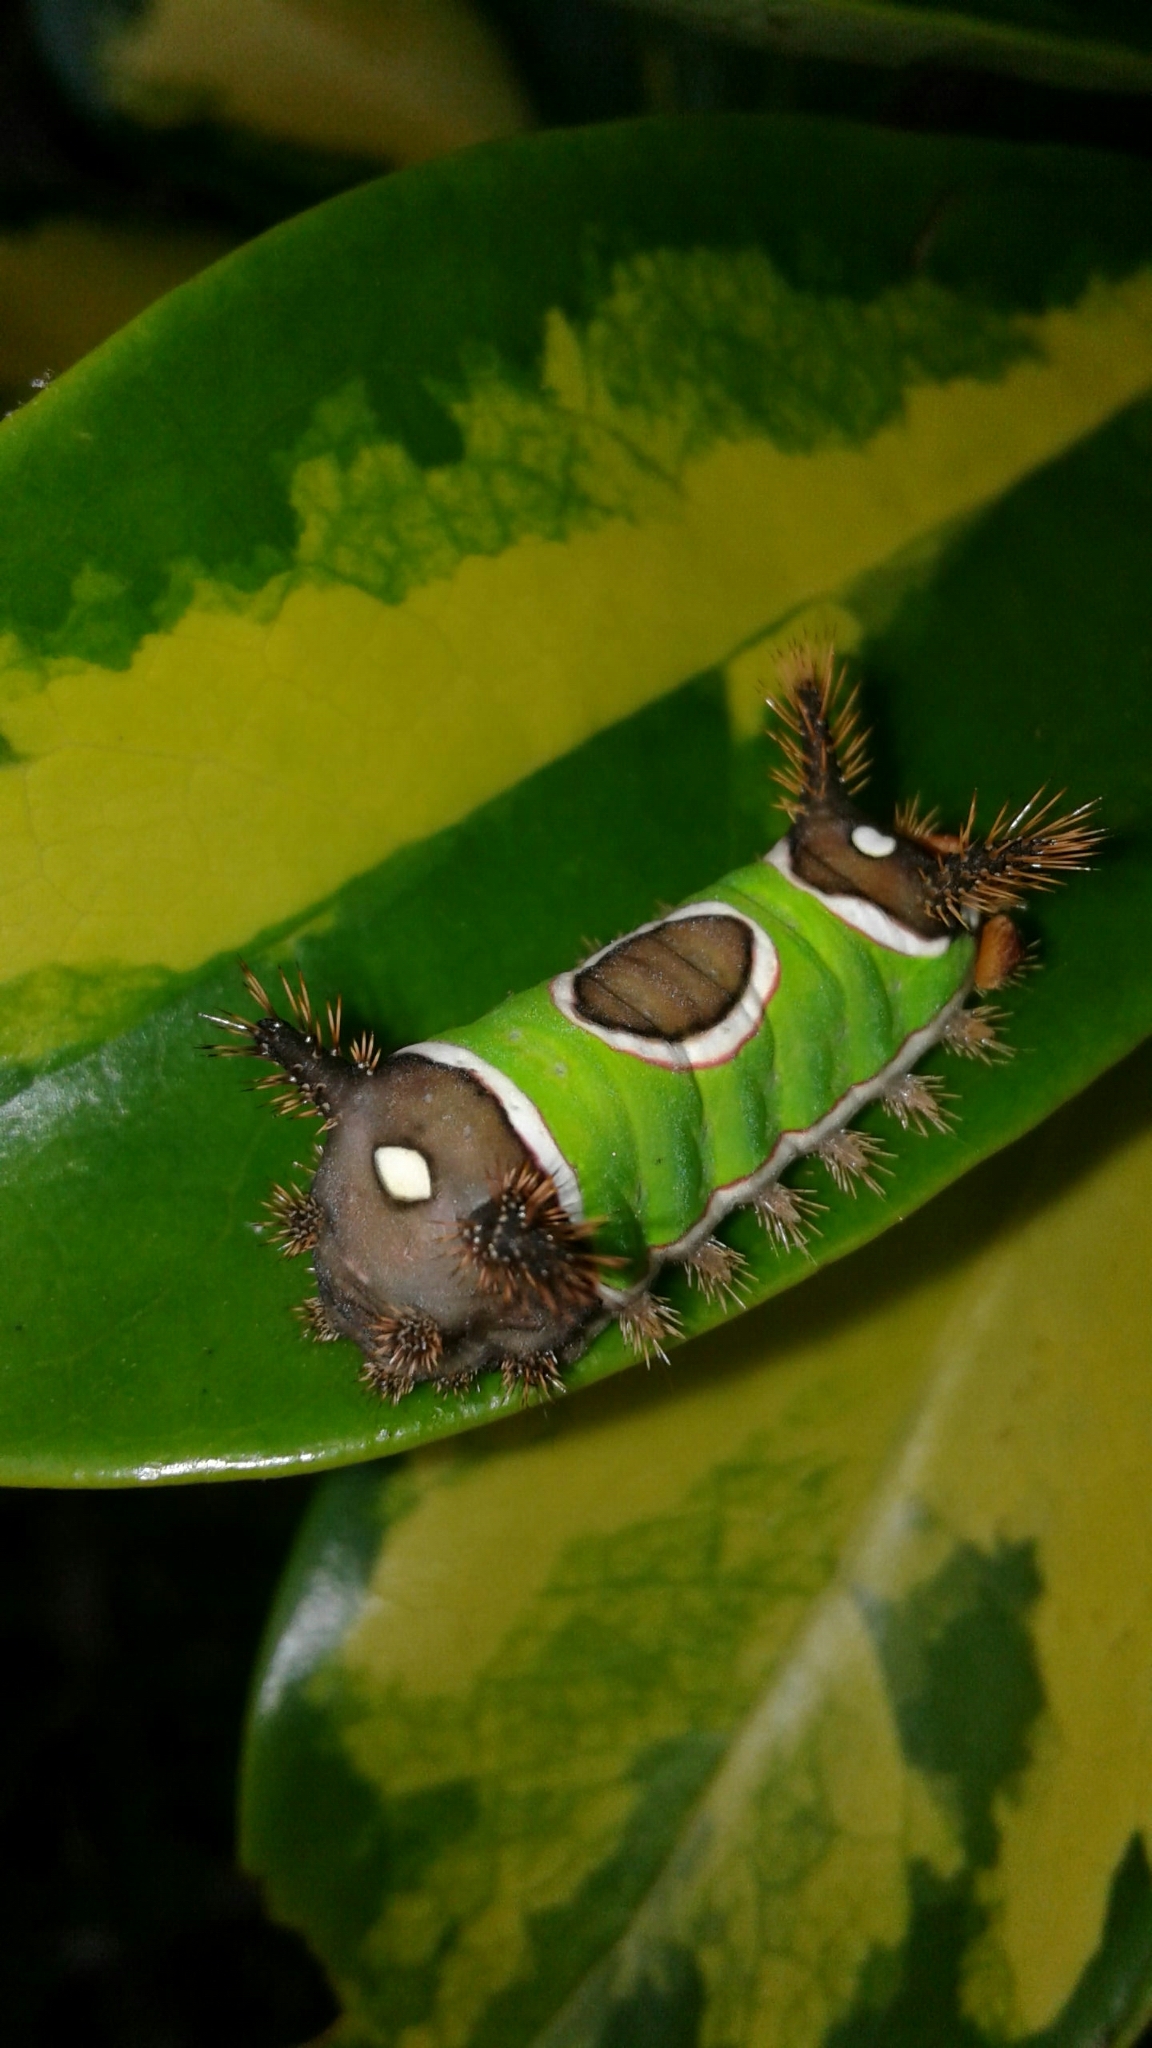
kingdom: Animalia
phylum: Arthropoda
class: Insecta
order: Lepidoptera
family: Limacodidae
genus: Sibine
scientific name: Sibine apicalis
